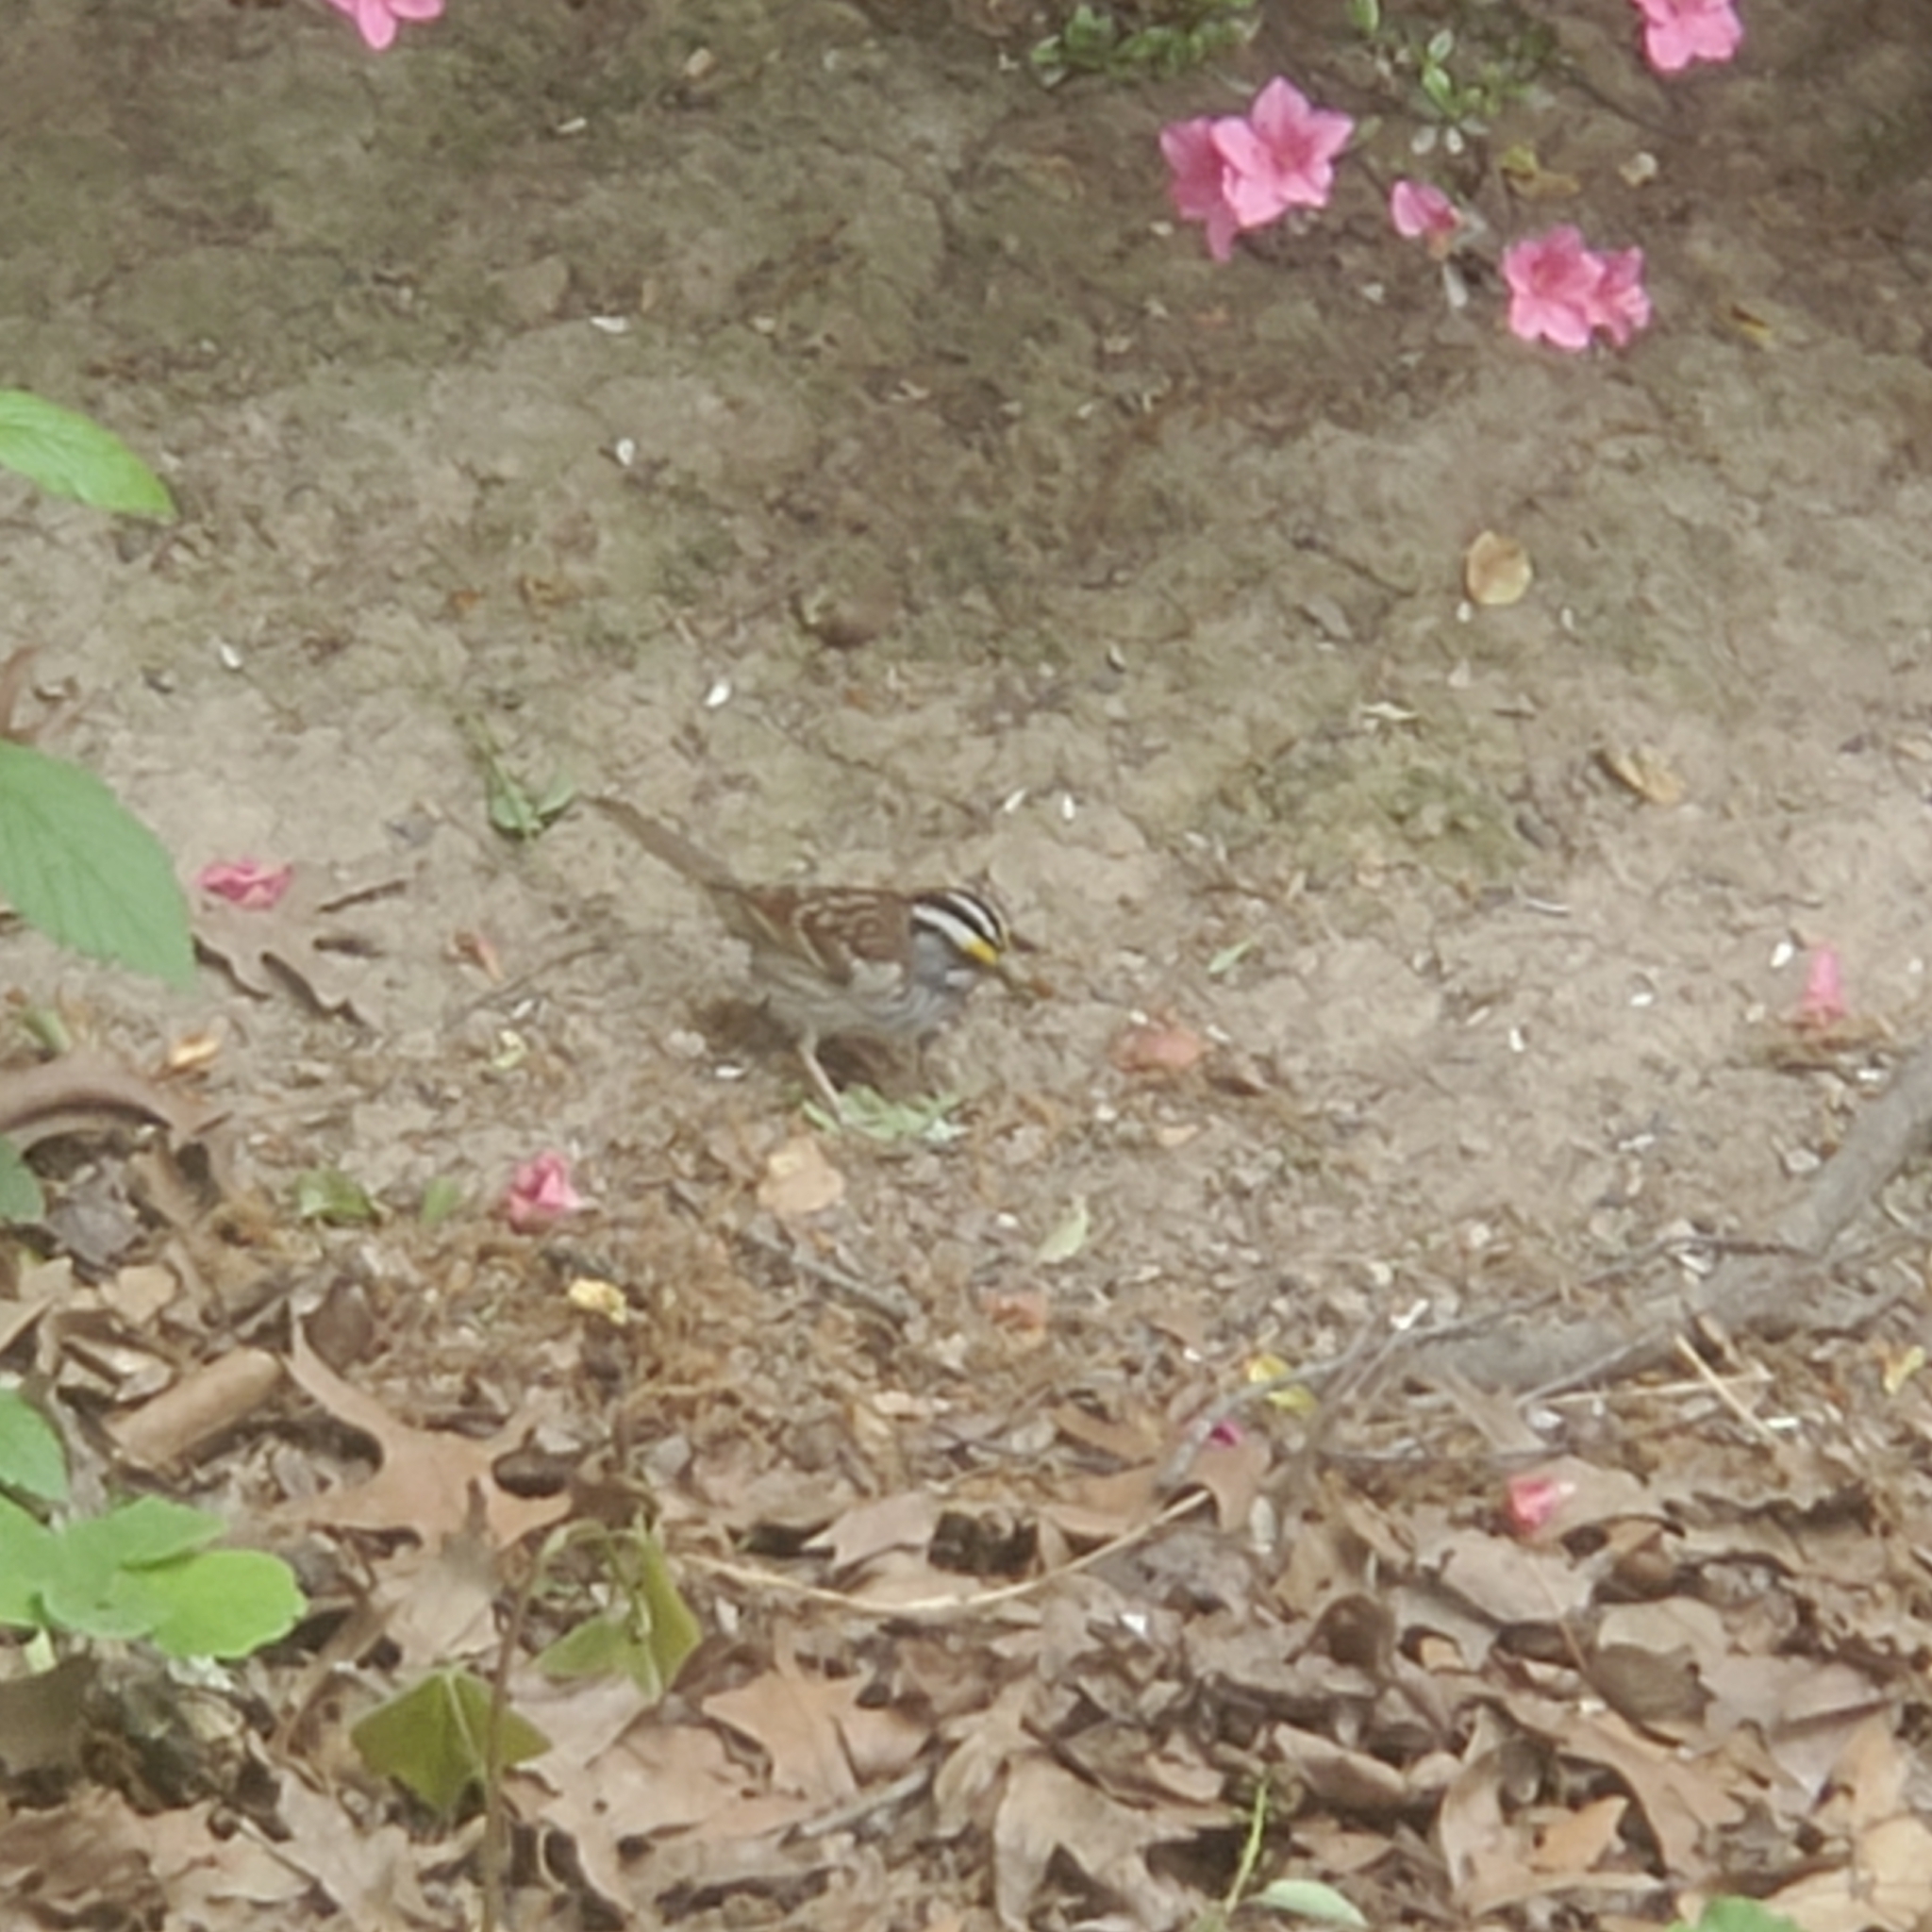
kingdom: Animalia
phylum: Chordata
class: Aves
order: Passeriformes
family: Passerellidae
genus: Zonotrichia
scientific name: Zonotrichia albicollis
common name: White-throated sparrow
